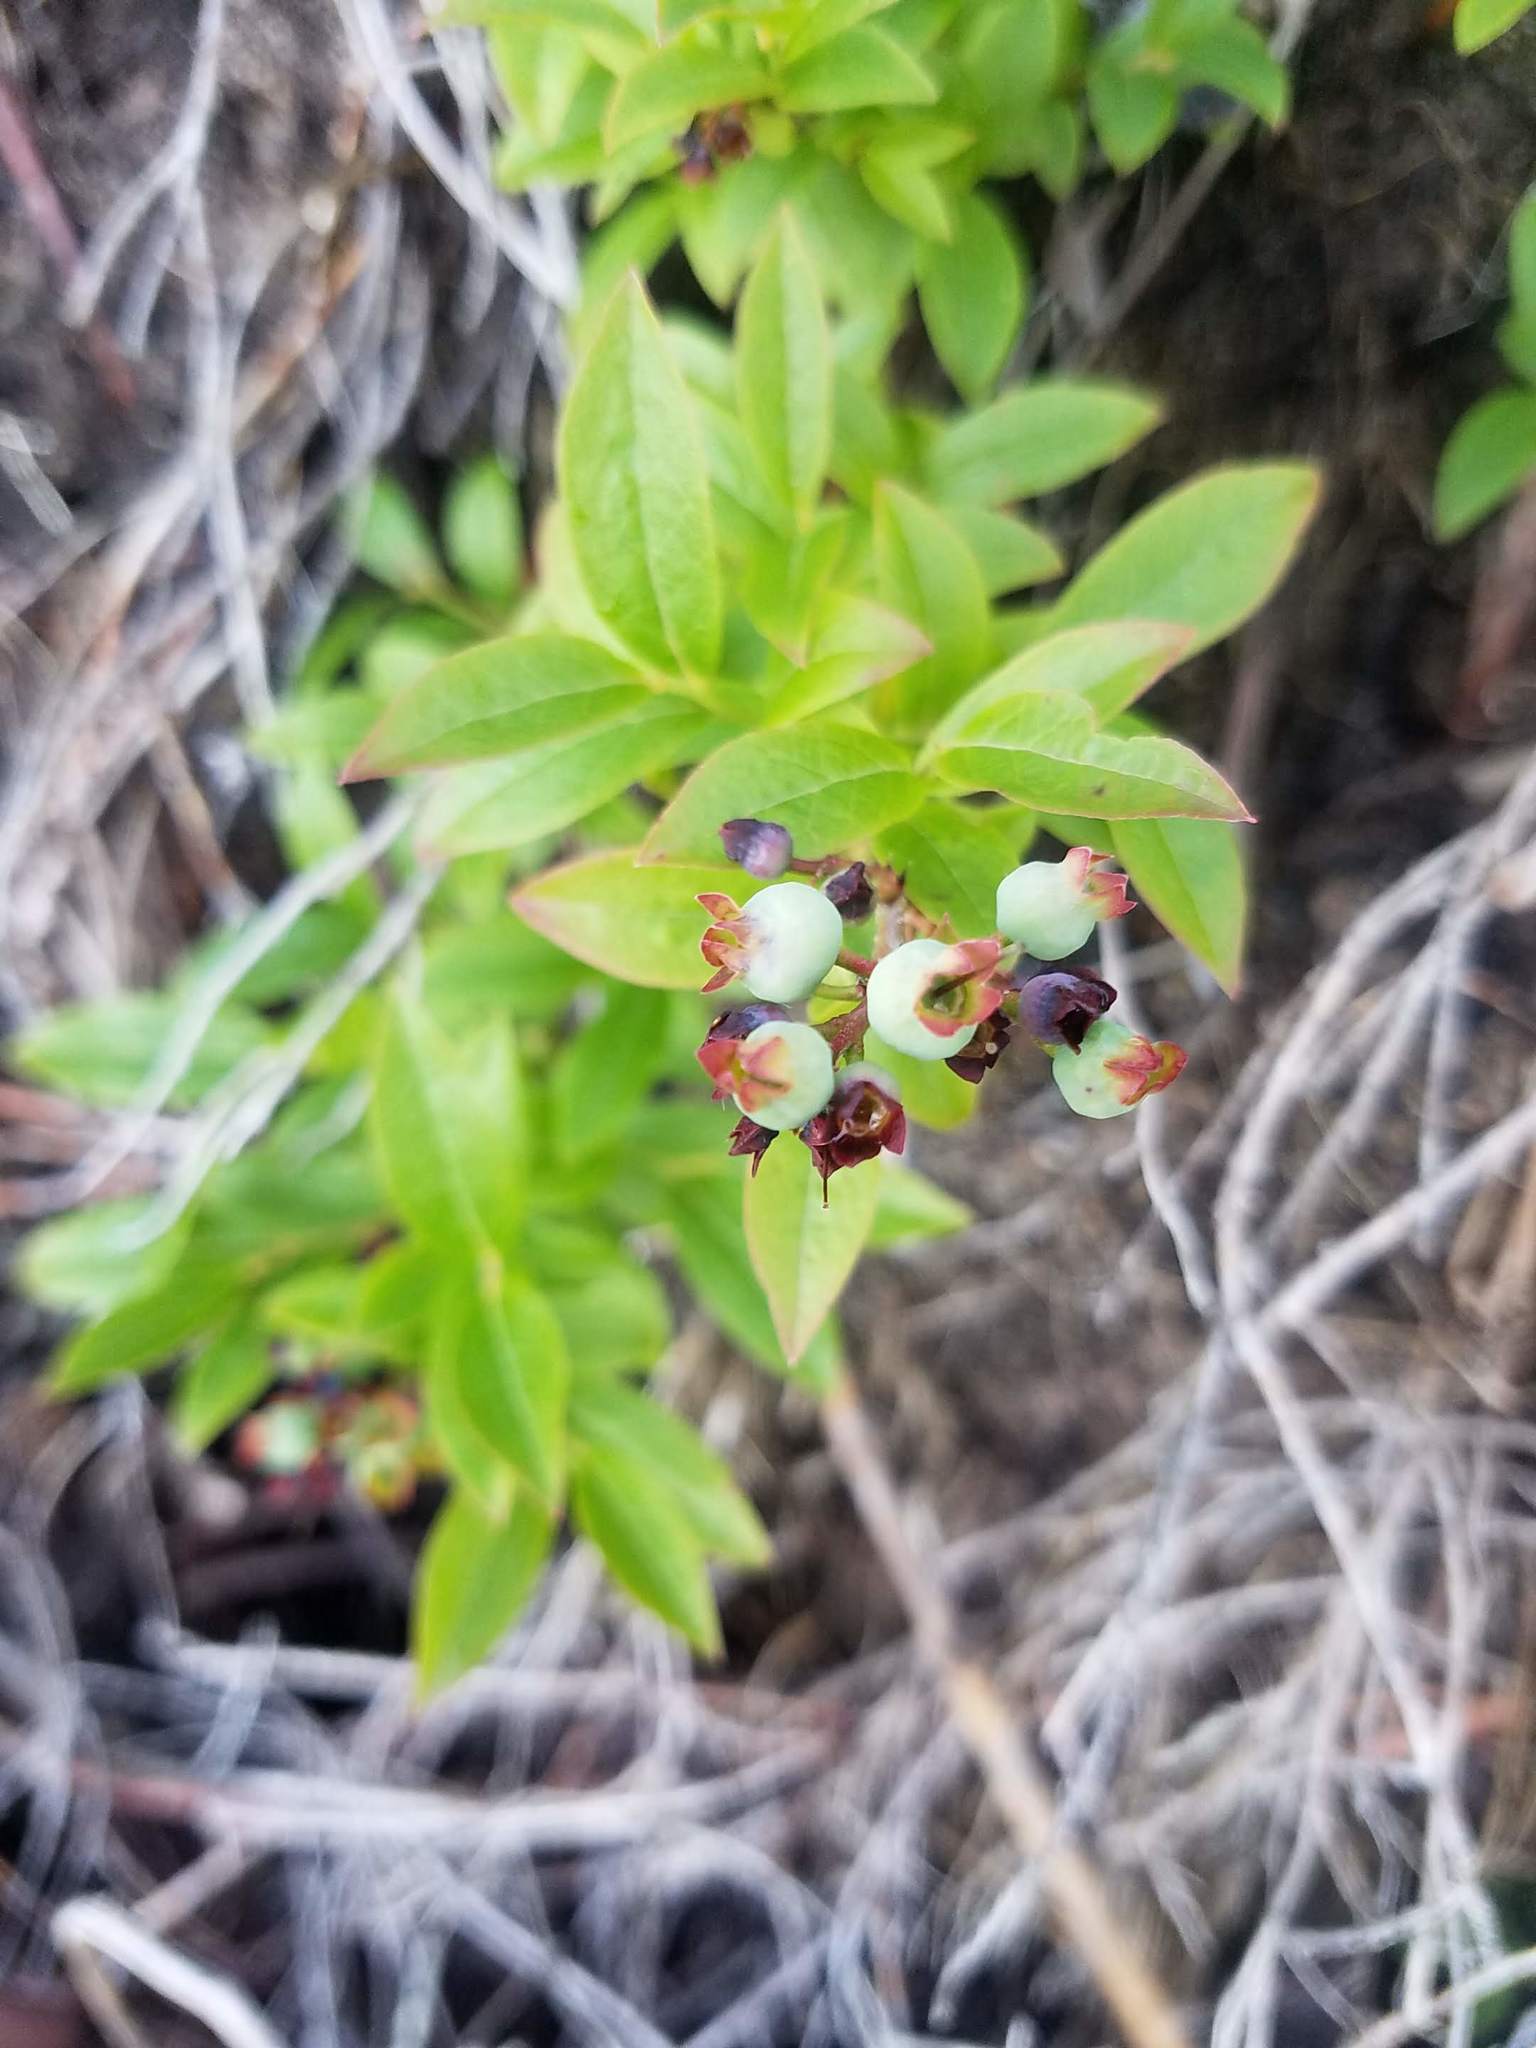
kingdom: Plantae
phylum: Tracheophyta
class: Magnoliopsida
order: Ericales
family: Ericaceae
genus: Vaccinium
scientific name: Vaccinium angustifolium
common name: Early lowbush blueberry
